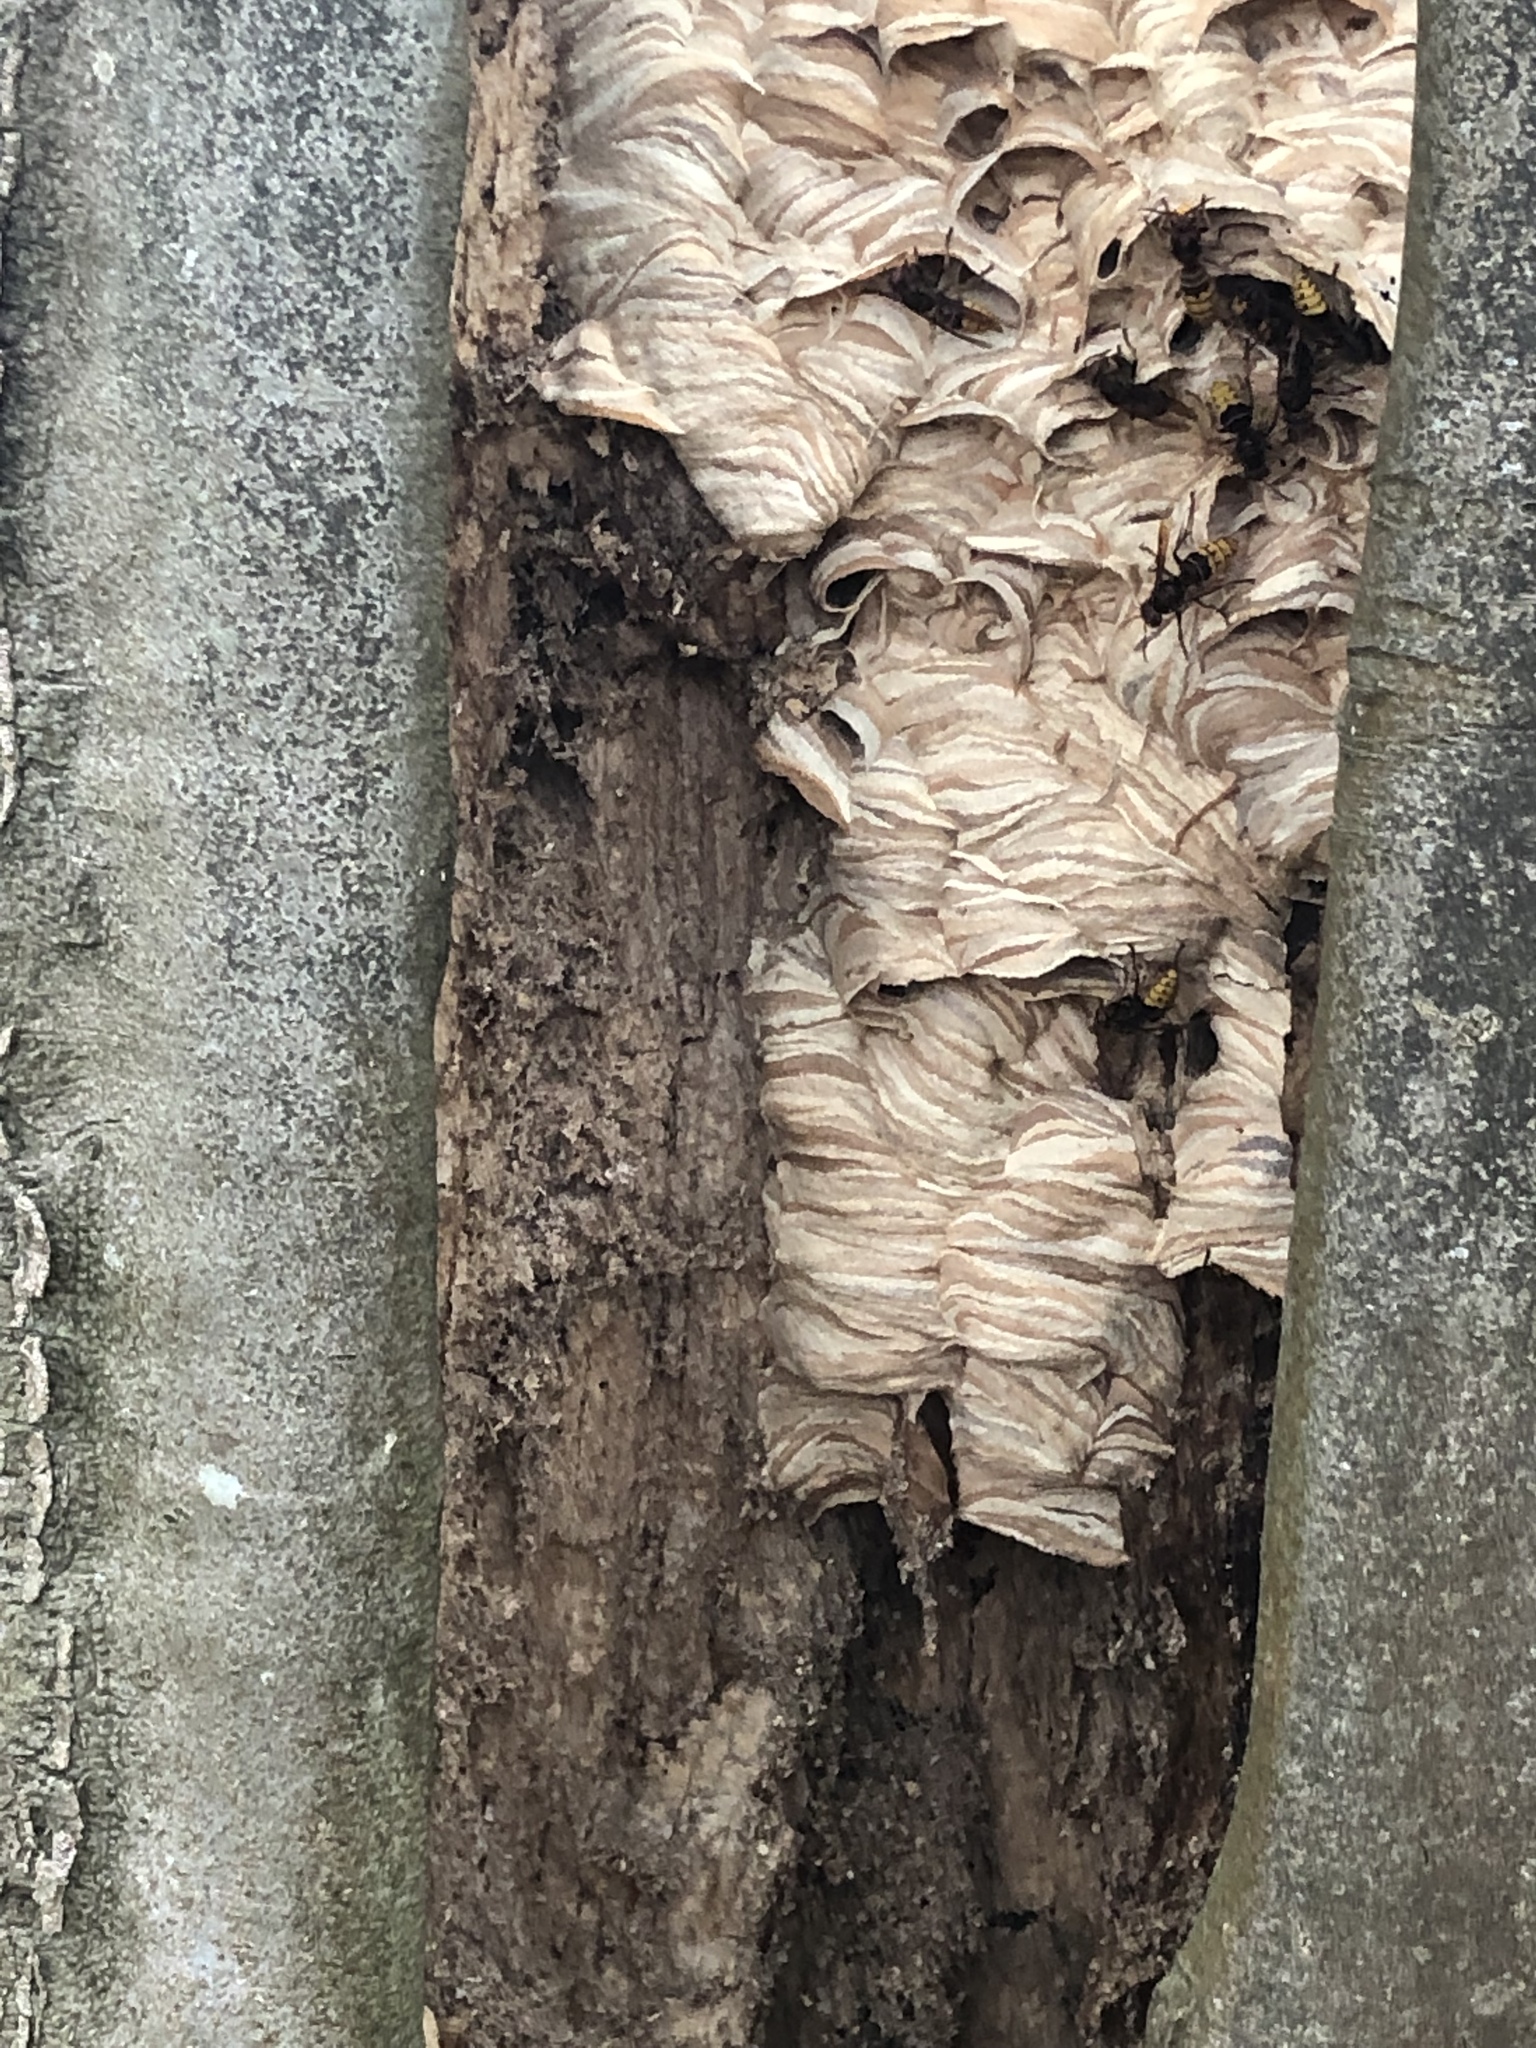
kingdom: Animalia
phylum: Arthropoda
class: Insecta
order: Hymenoptera
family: Vespidae
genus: Vespa
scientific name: Vespa crabro
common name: Hornet
